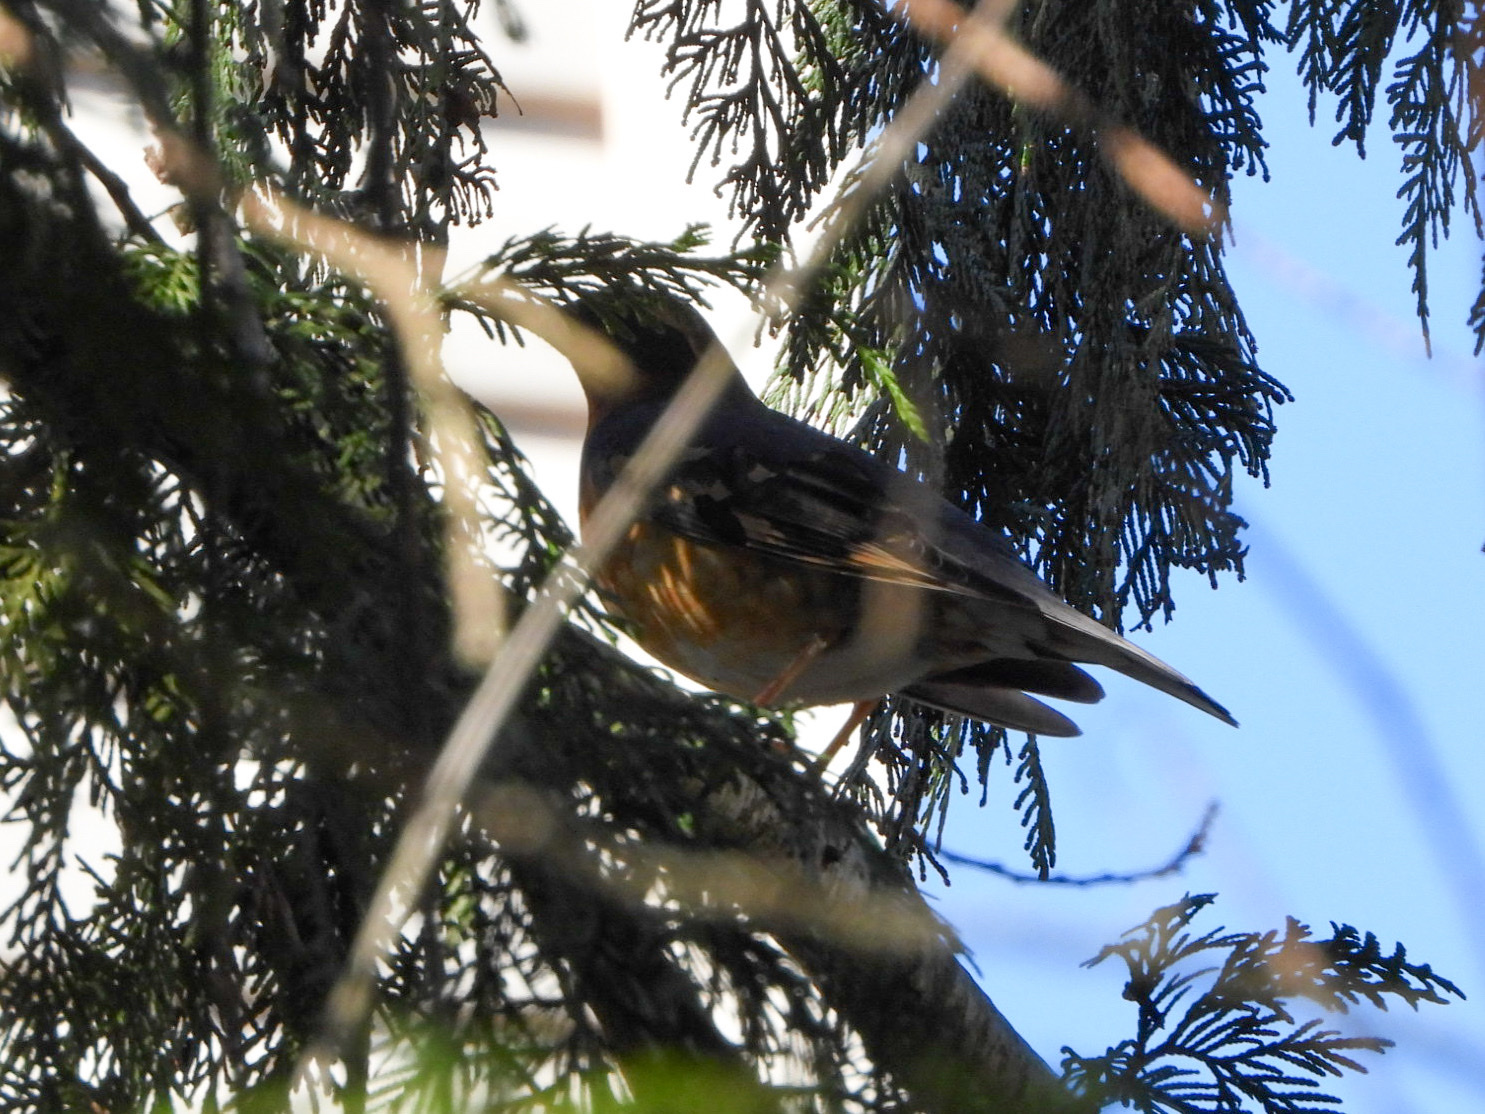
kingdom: Animalia
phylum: Chordata
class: Aves
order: Passeriformes
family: Turdidae
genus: Ixoreus
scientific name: Ixoreus naevius
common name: Varied thrush
